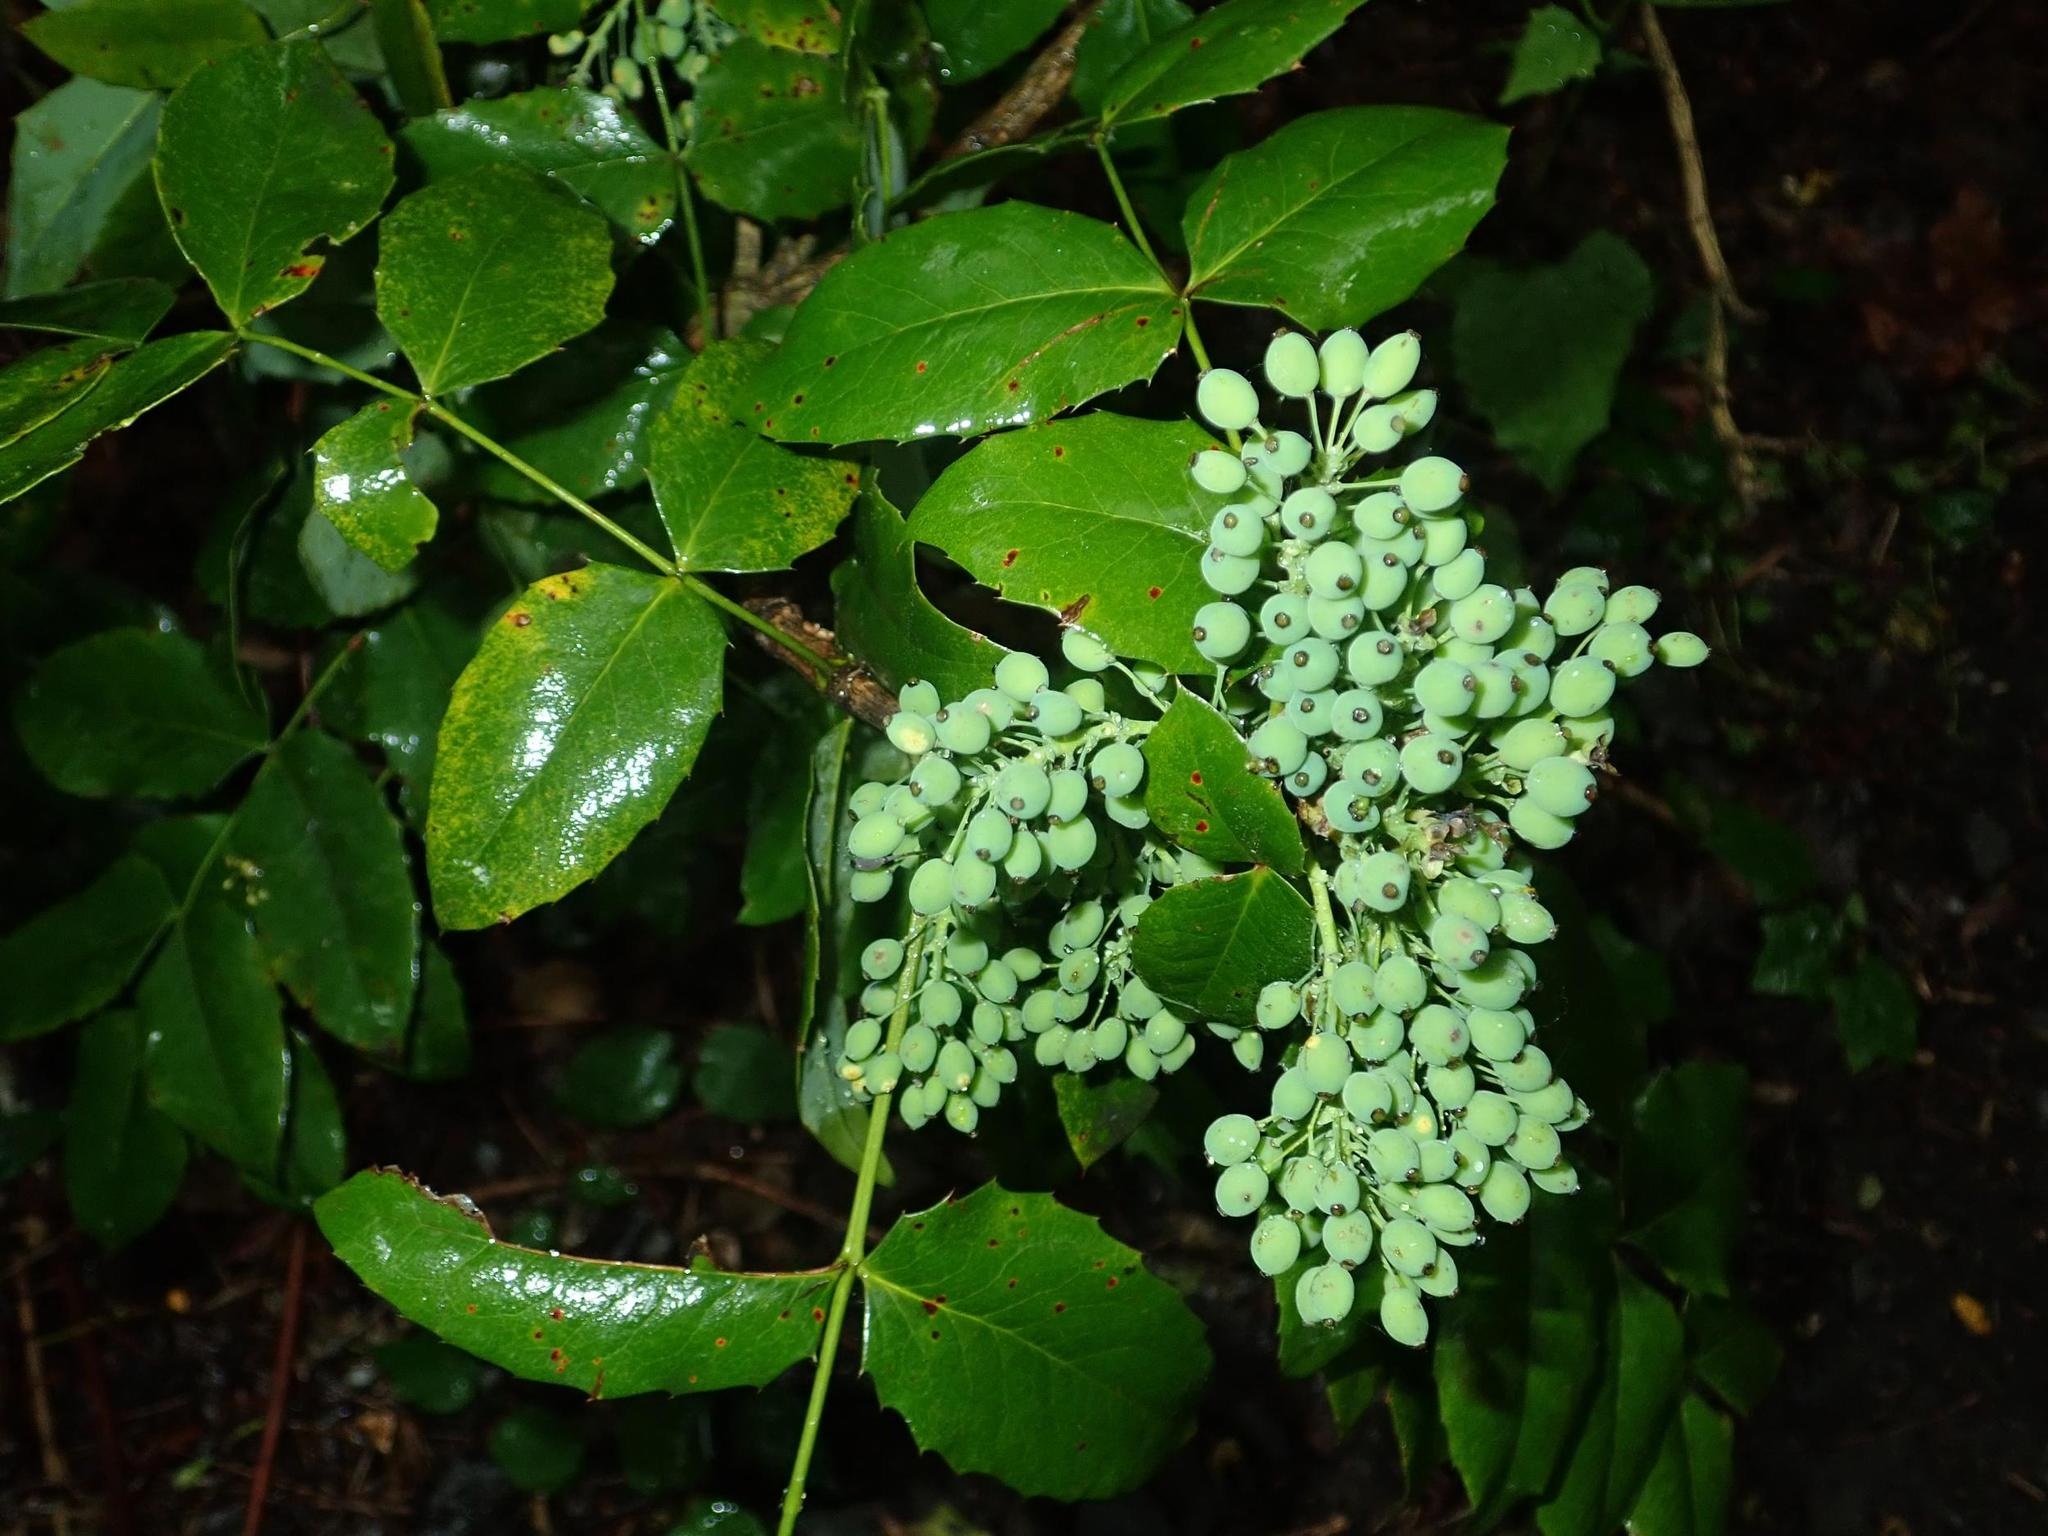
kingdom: Plantae
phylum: Tracheophyta
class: Magnoliopsida
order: Ranunculales
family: Berberidaceae
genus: Mahonia
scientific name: Mahonia aquifolium
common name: Oregon-grape
